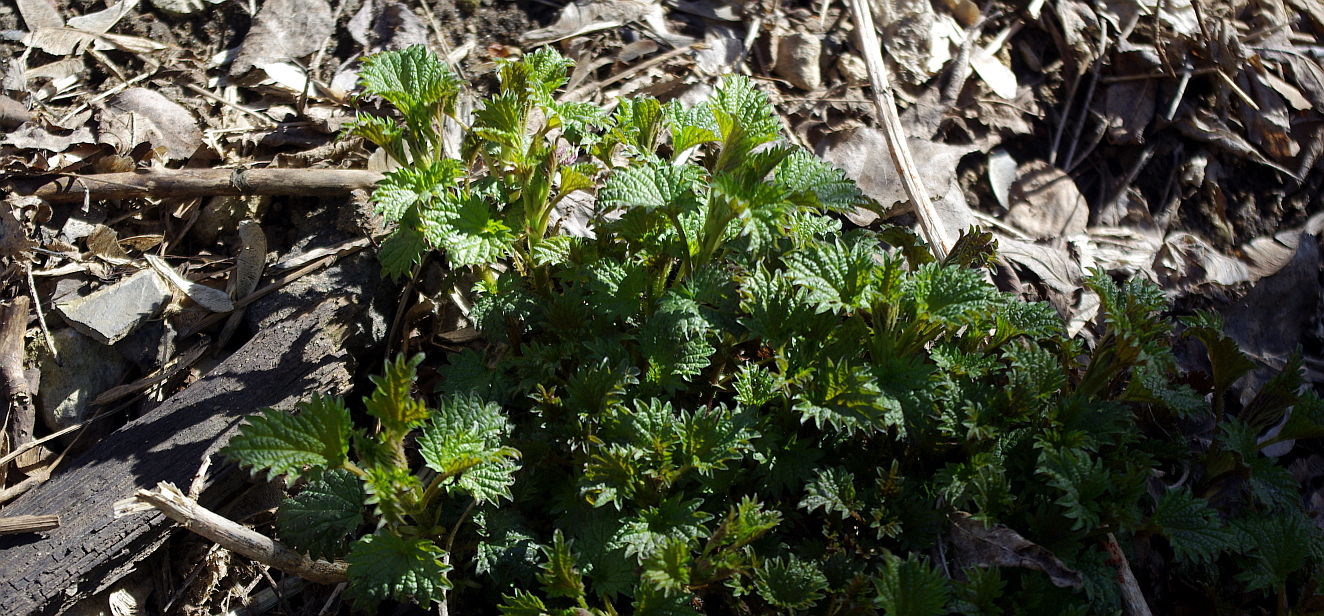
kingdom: Plantae
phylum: Tracheophyta
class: Magnoliopsida
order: Rosales
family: Urticaceae
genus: Urtica
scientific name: Urtica dioica
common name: Common nettle
